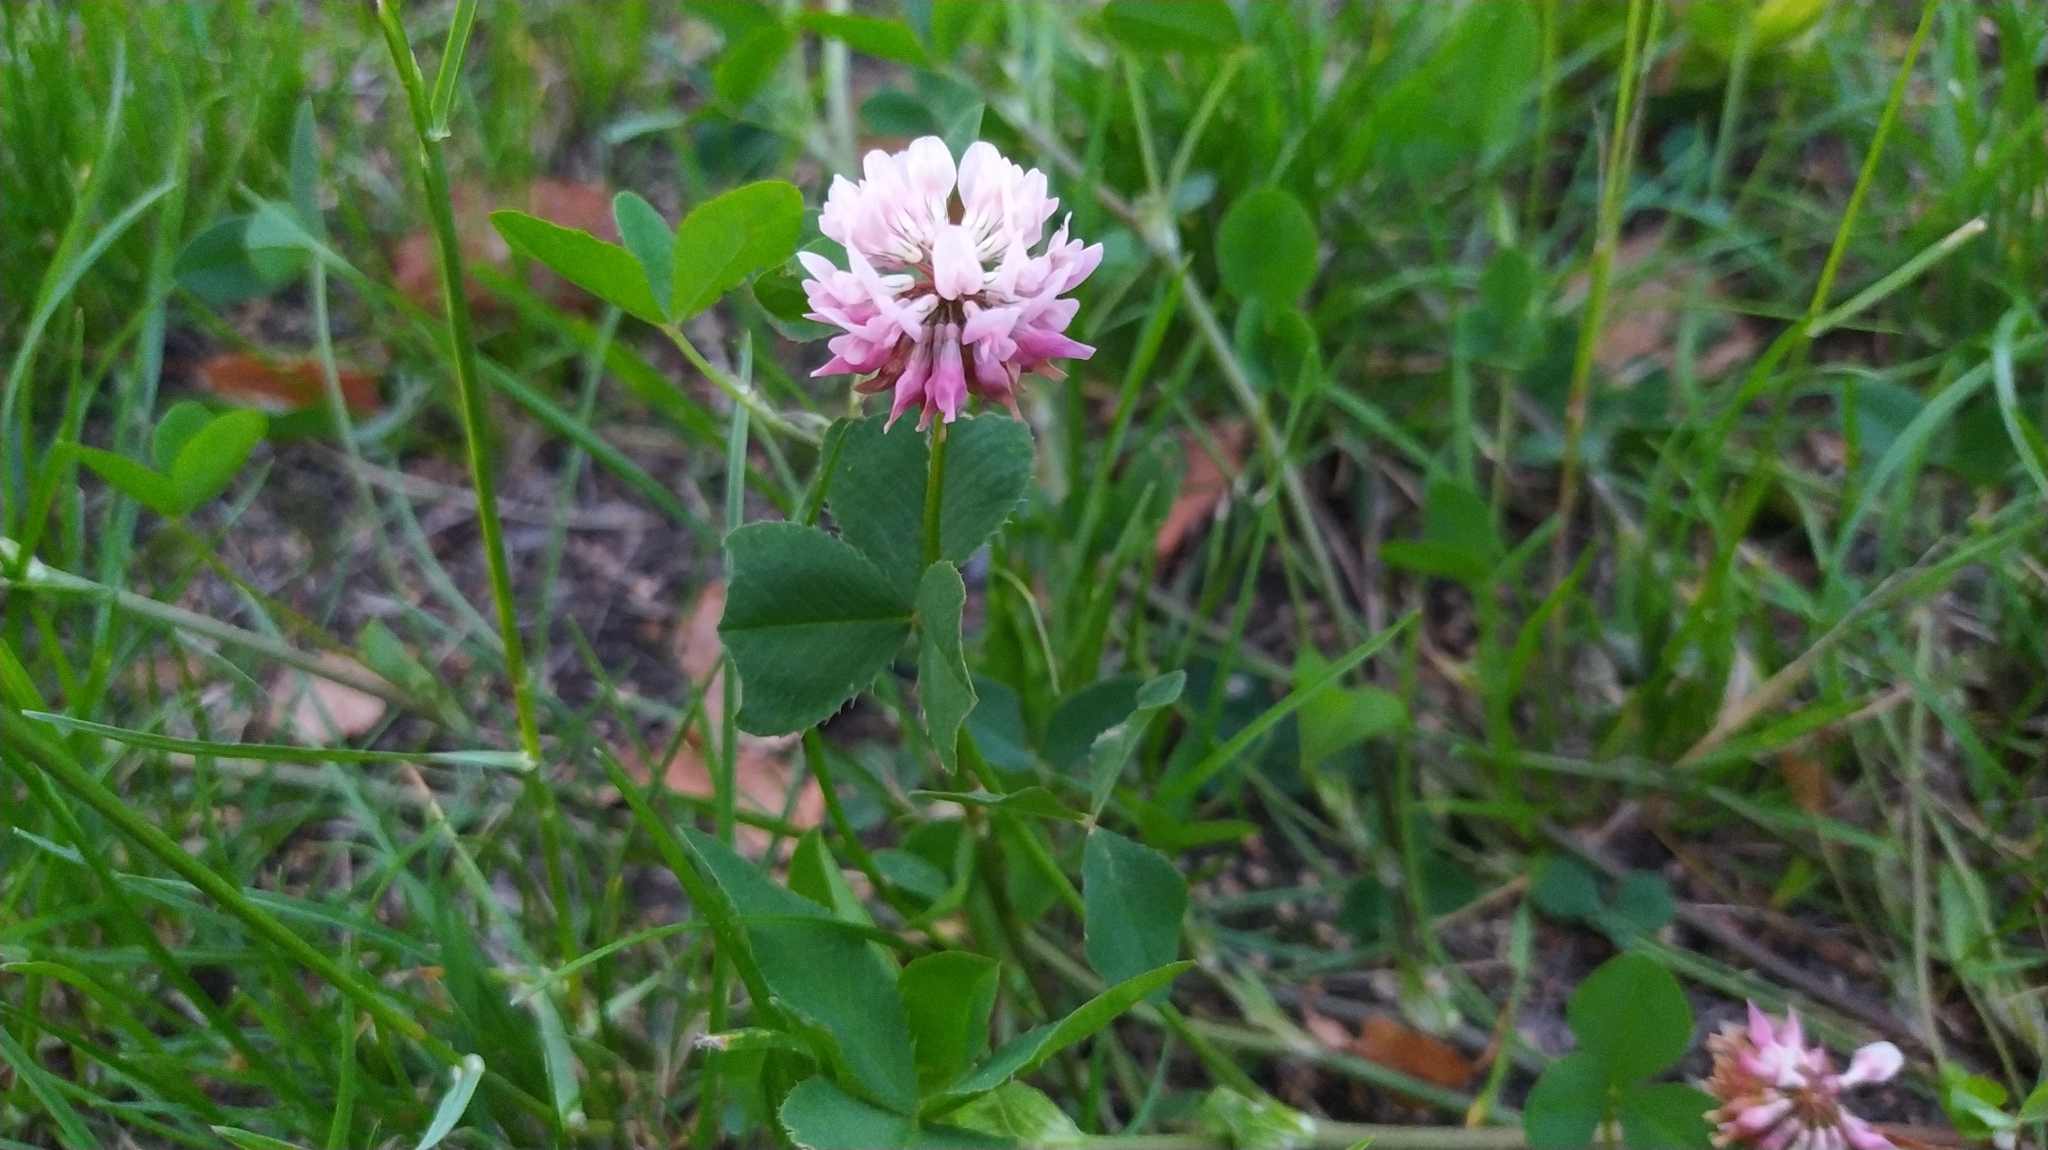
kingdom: Plantae
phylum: Tracheophyta
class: Magnoliopsida
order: Fabales
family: Fabaceae
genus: Trifolium
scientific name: Trifolium hybridum
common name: Alsike clover
